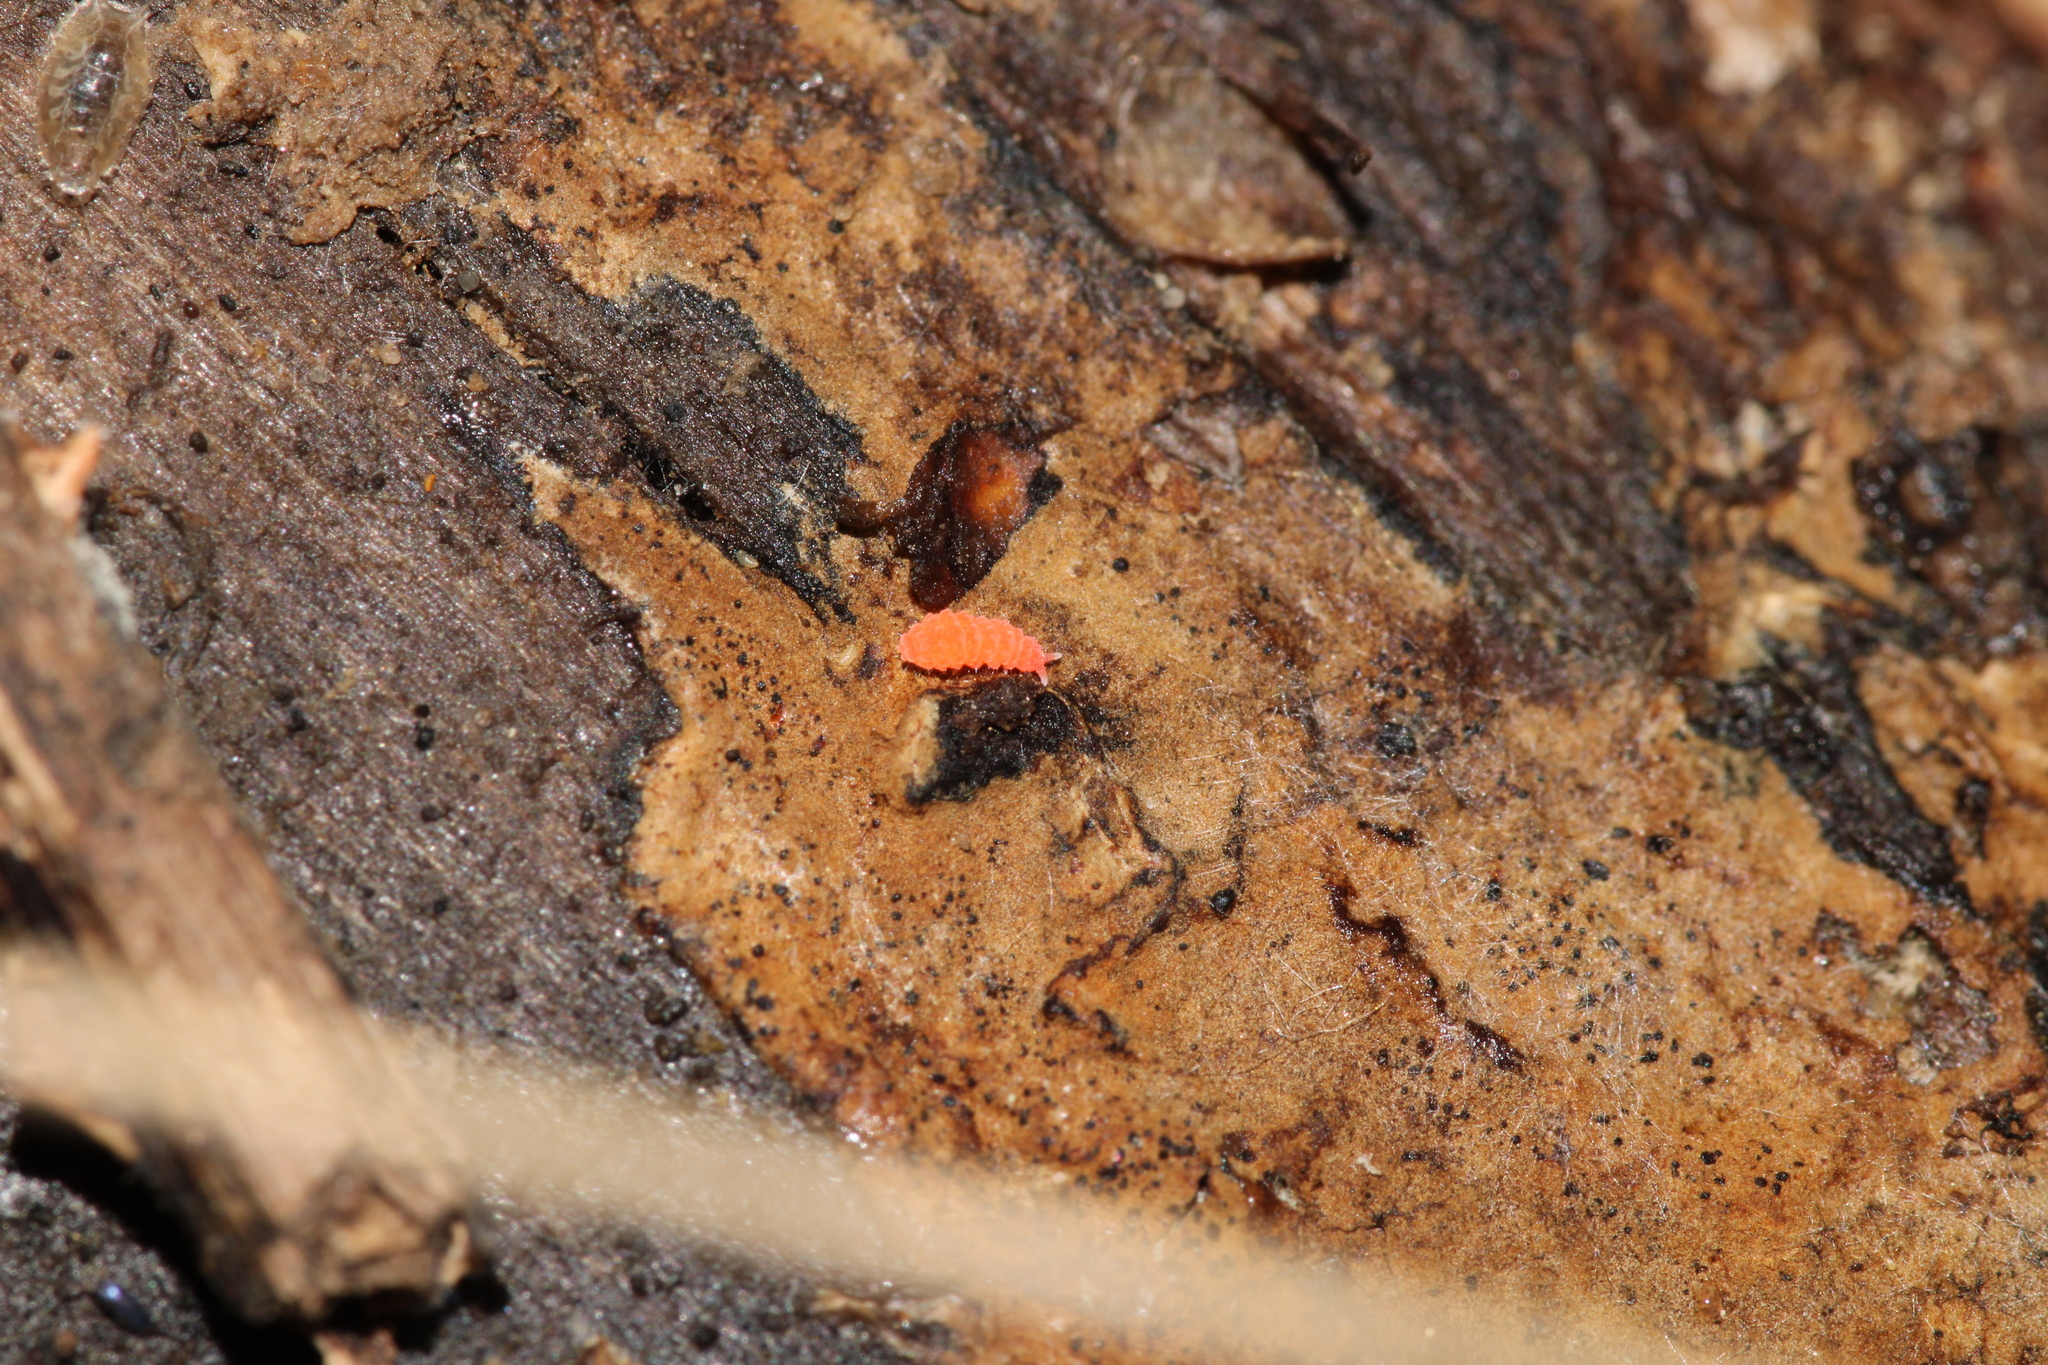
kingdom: Animalia
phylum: Arthropoda
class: Collembola
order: Poduromorpha
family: Neanuridae
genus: Bilobella
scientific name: Bilobella braunerae
